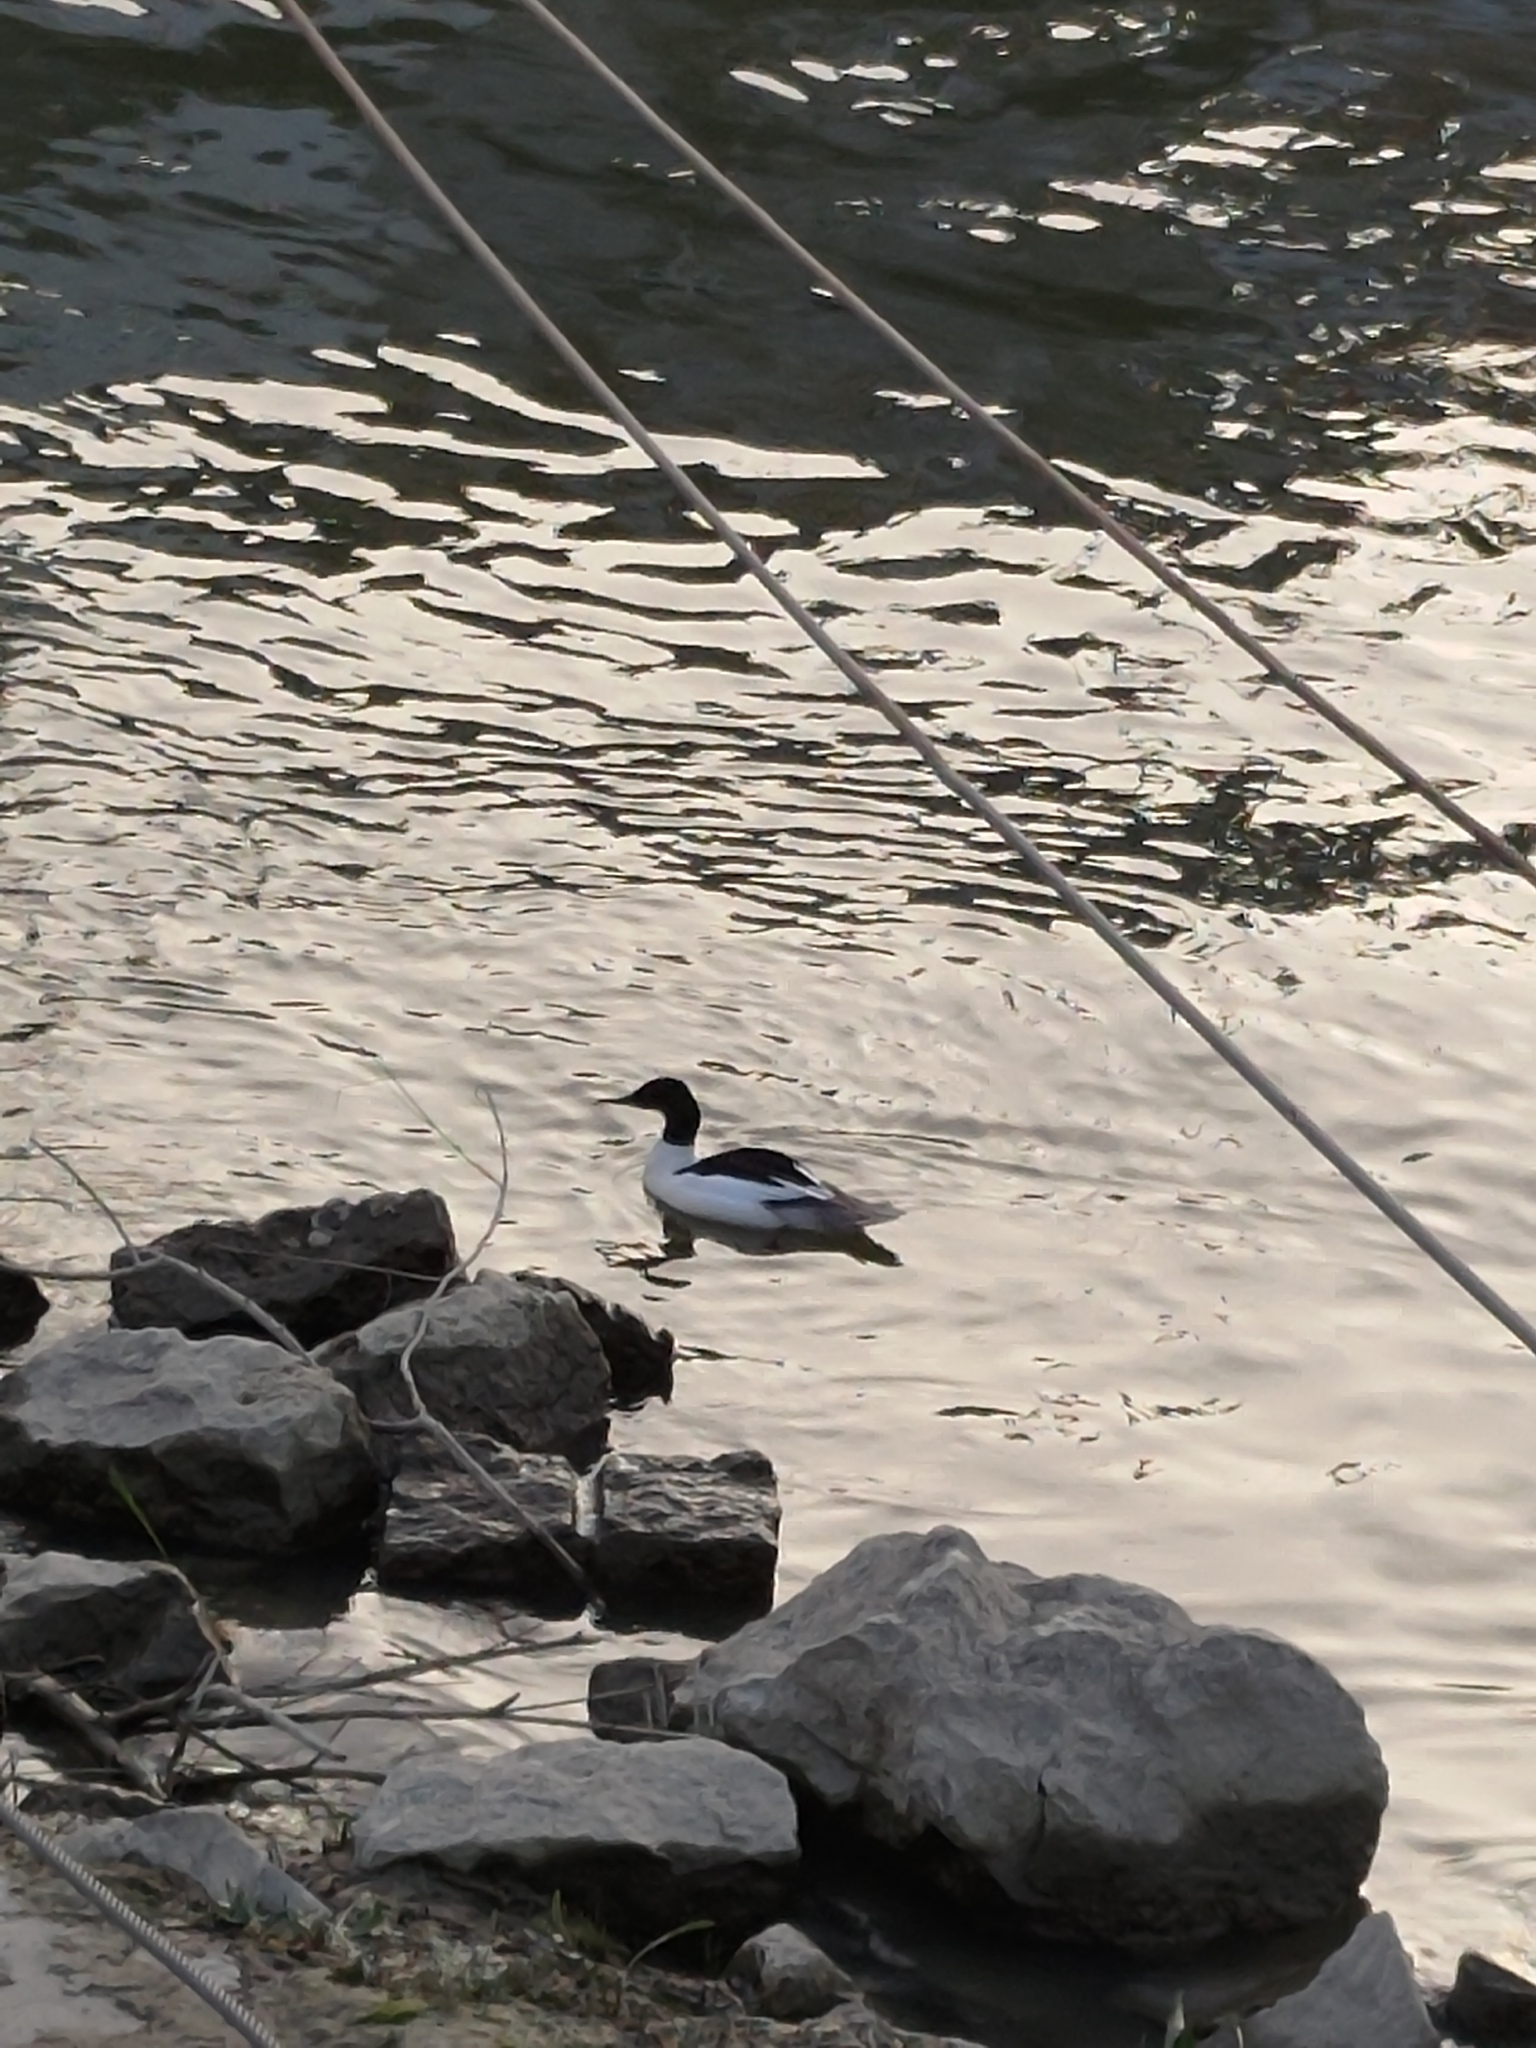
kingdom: Animalia
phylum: Chordata
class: Aves
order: Anseriformes
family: Anatidae
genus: Mergus
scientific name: Mergus merganser
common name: Common merganser
